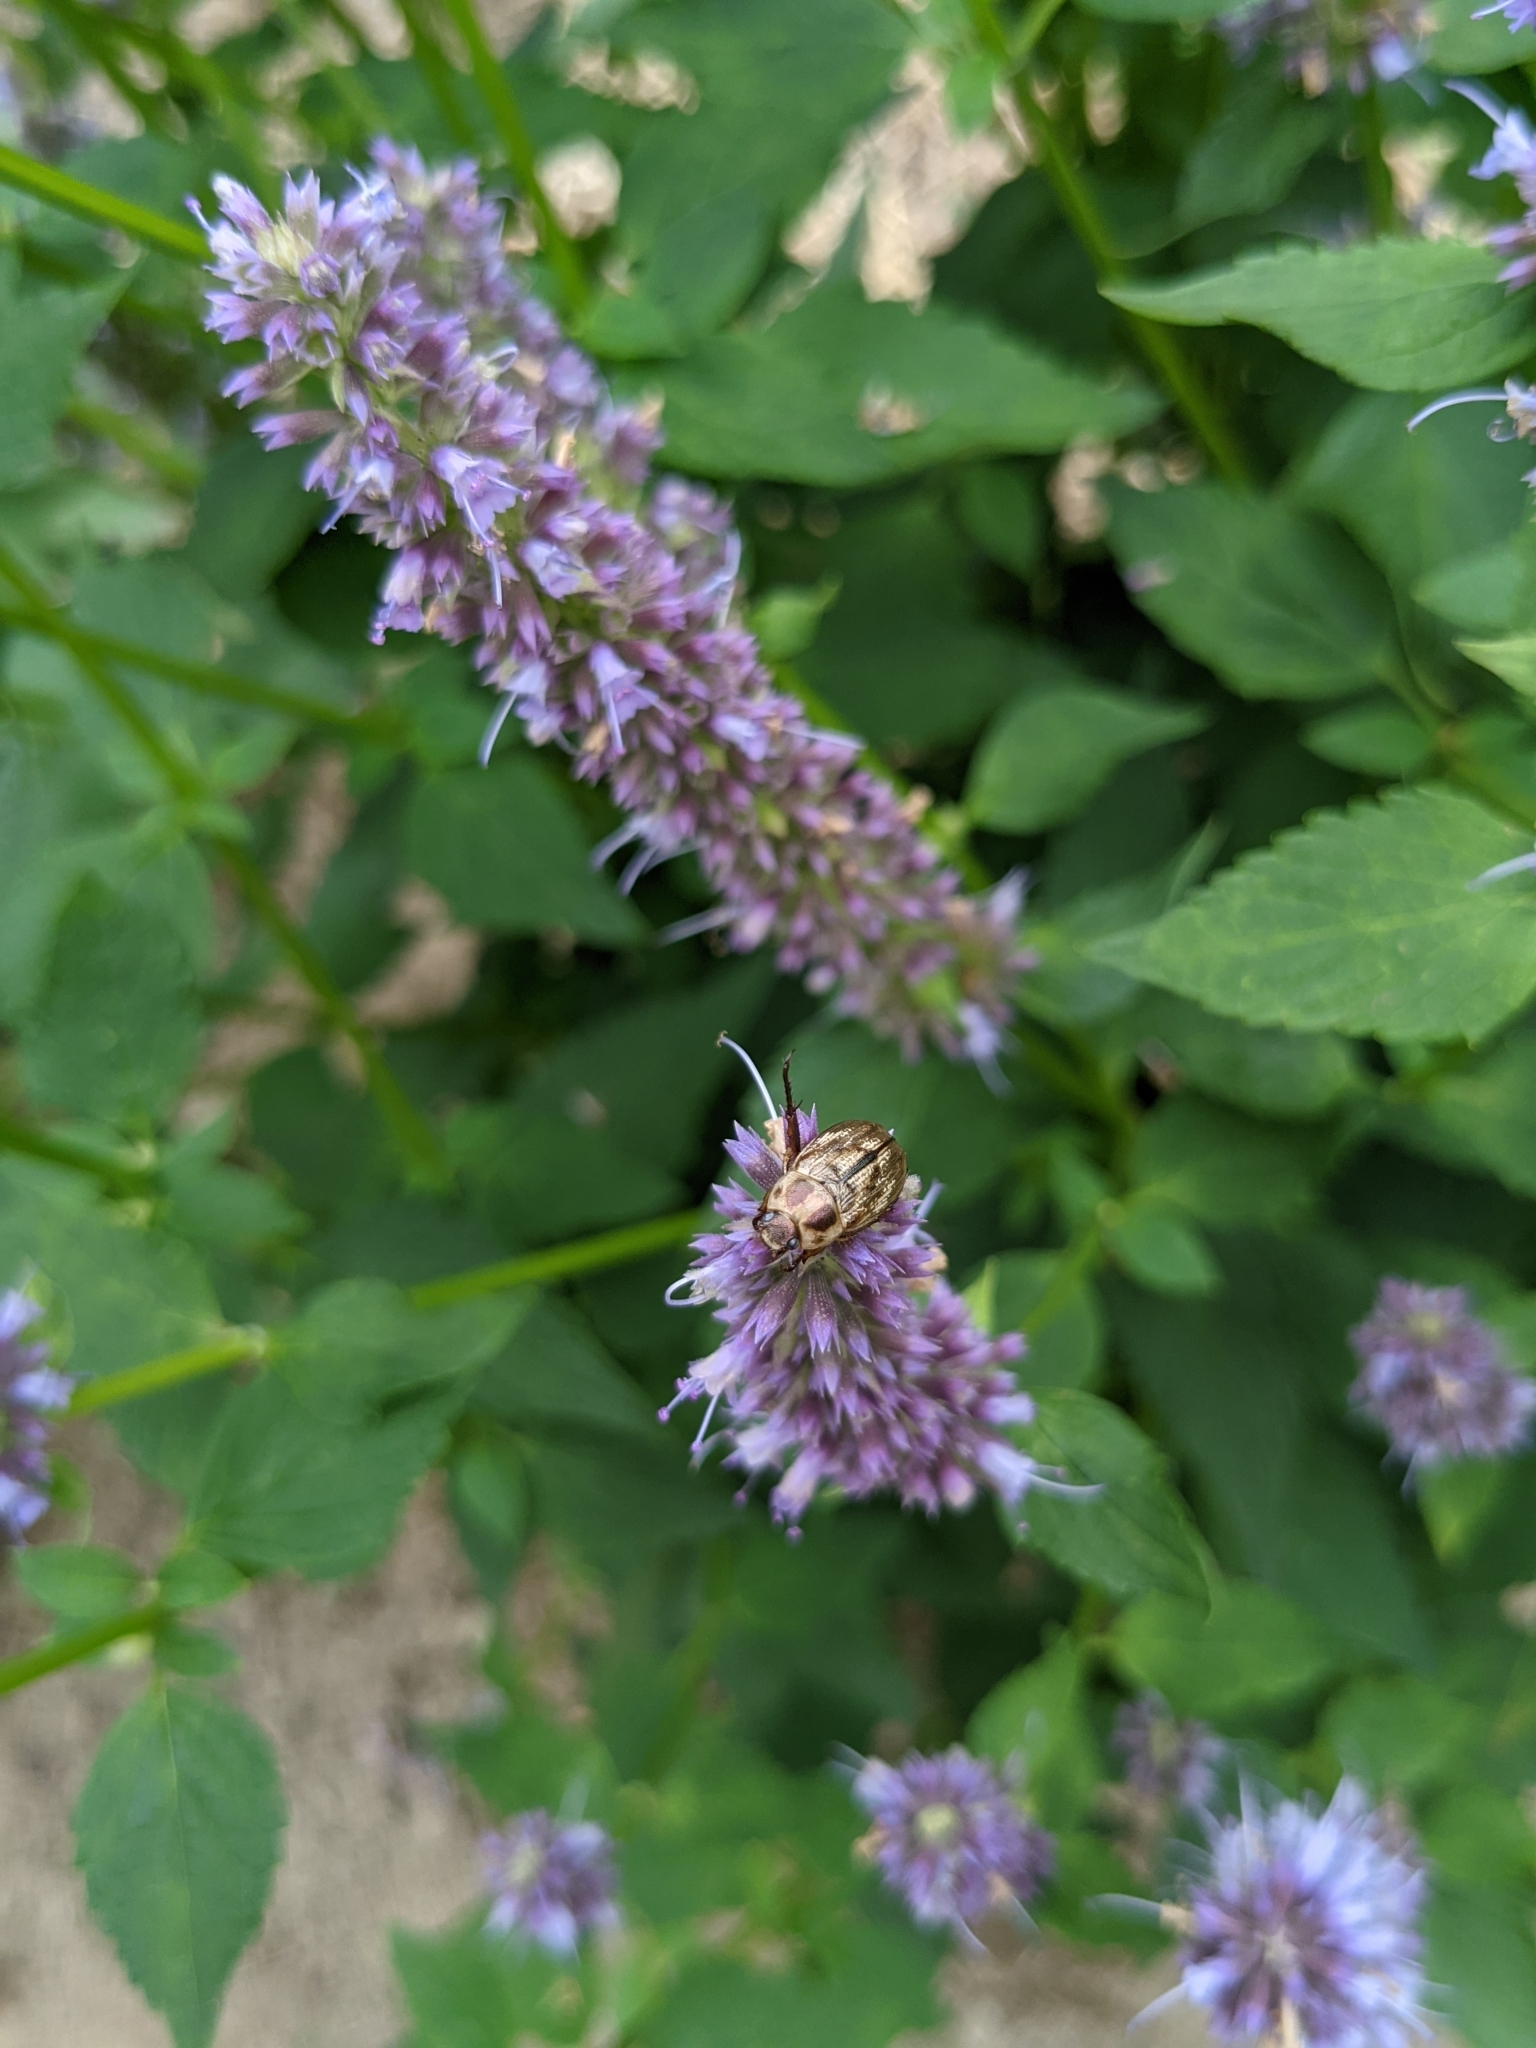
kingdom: Animalia
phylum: Arthropoda
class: Insecta
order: Coleoptera
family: Scarabaeidae
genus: Exomala
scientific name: Exomala orientalis
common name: Oriental beetle
